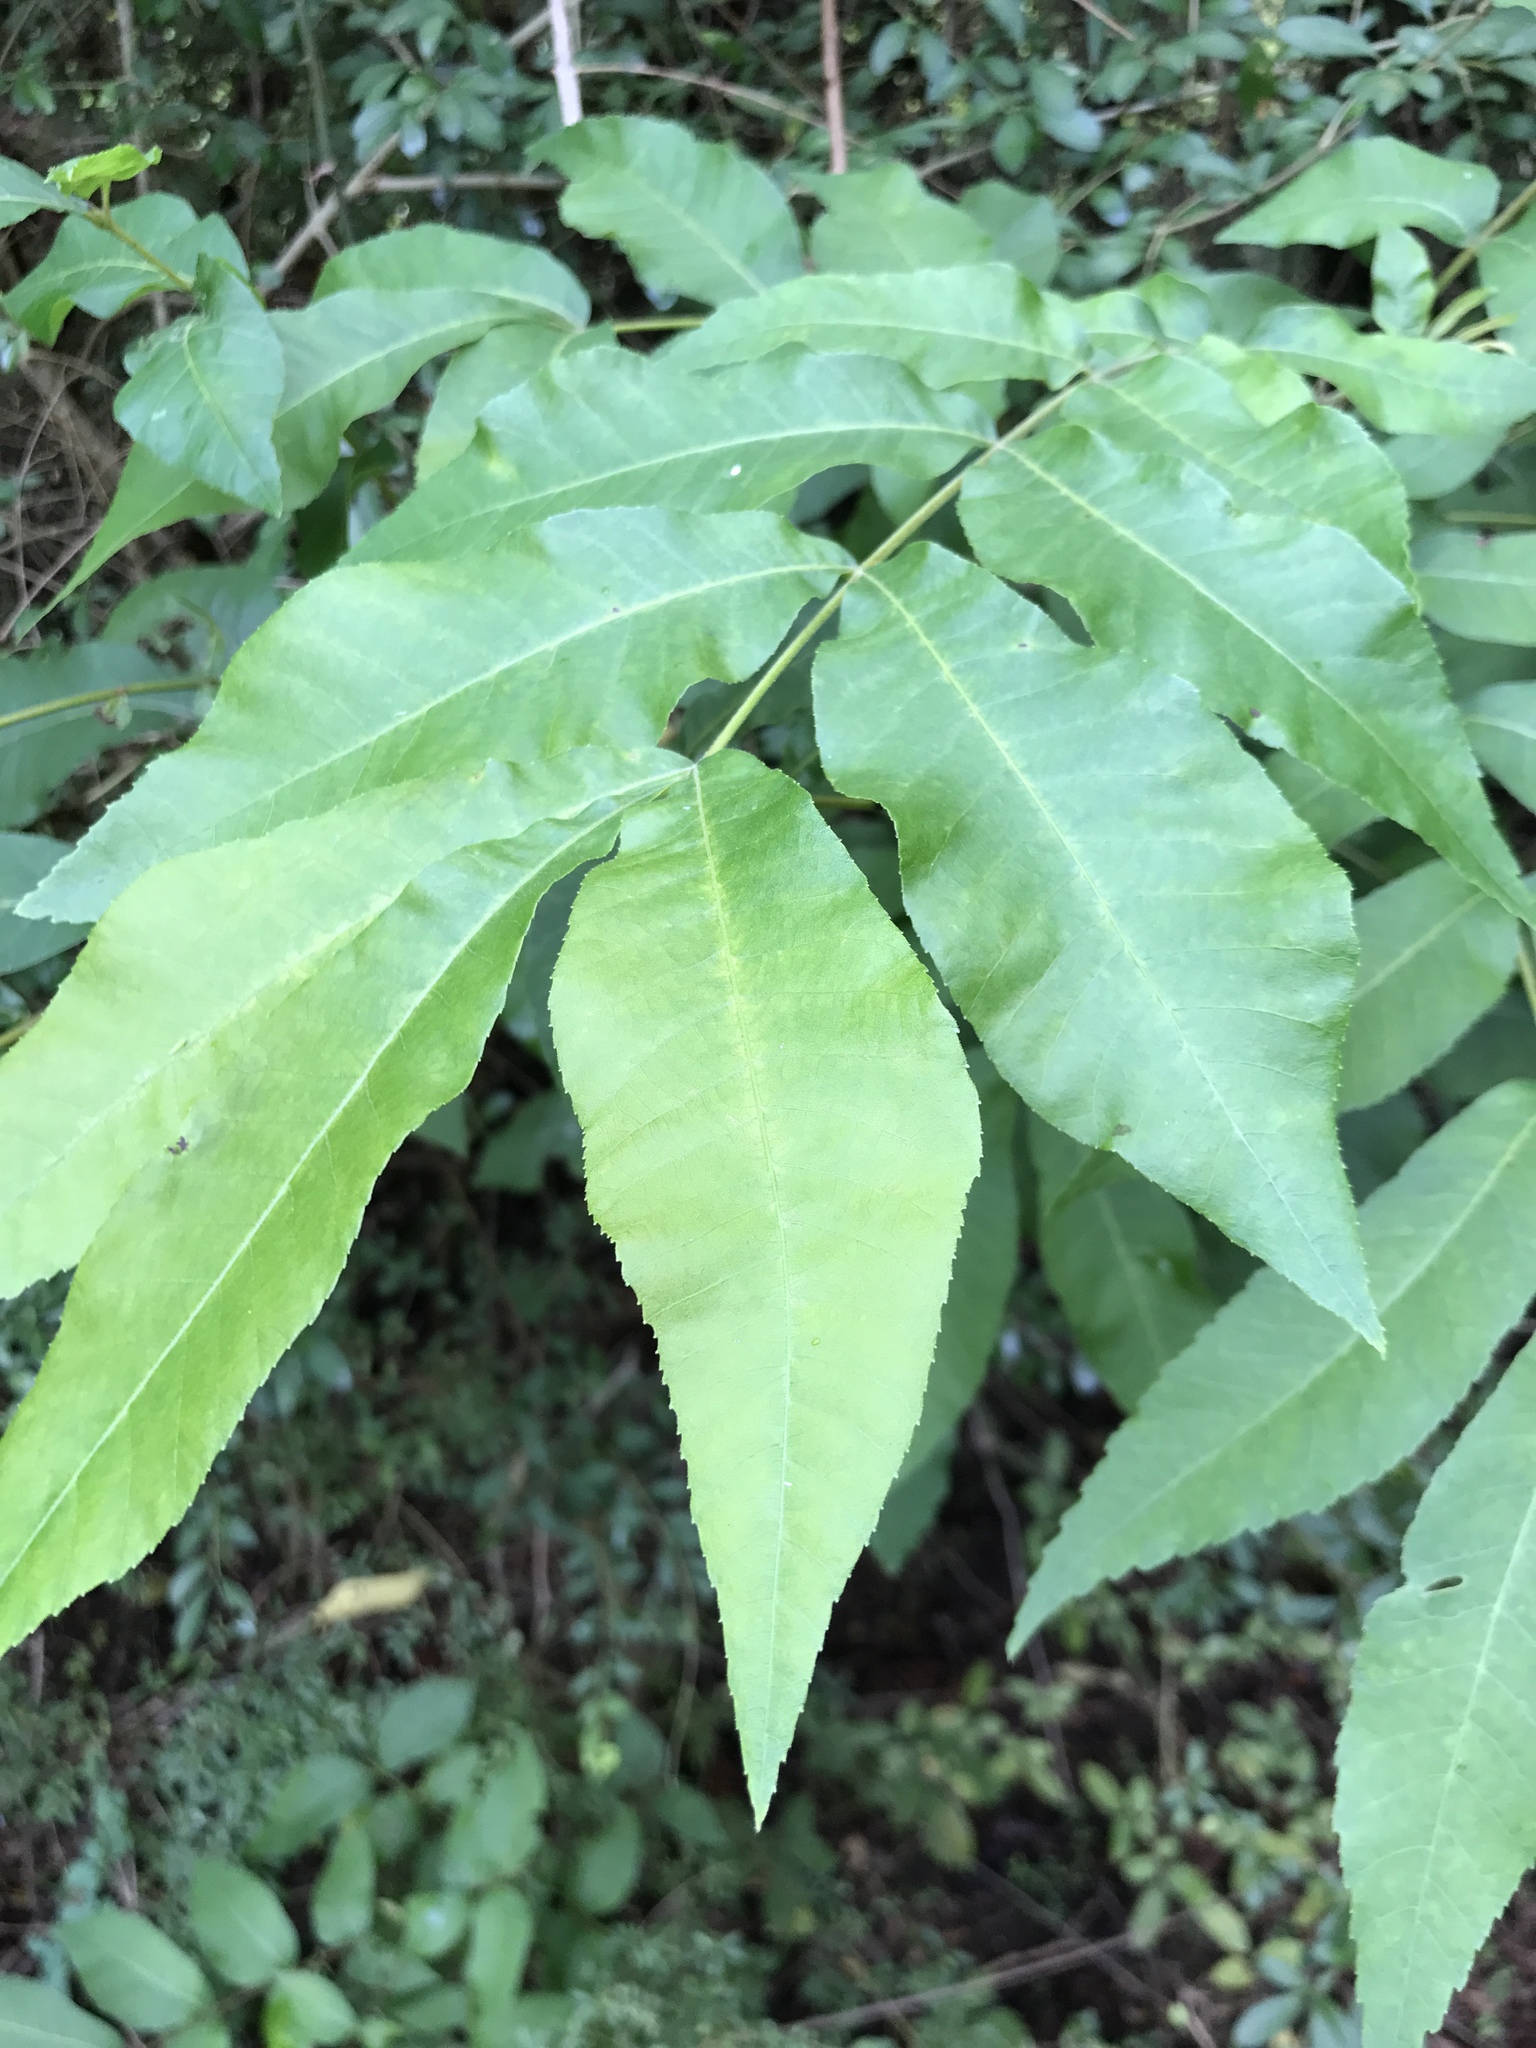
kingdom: Plantae
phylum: Tracheophyta
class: Magnoliopsida
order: Fagales
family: Juglandaceae
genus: Carya
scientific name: Carya illinoinensis
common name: Pecan
